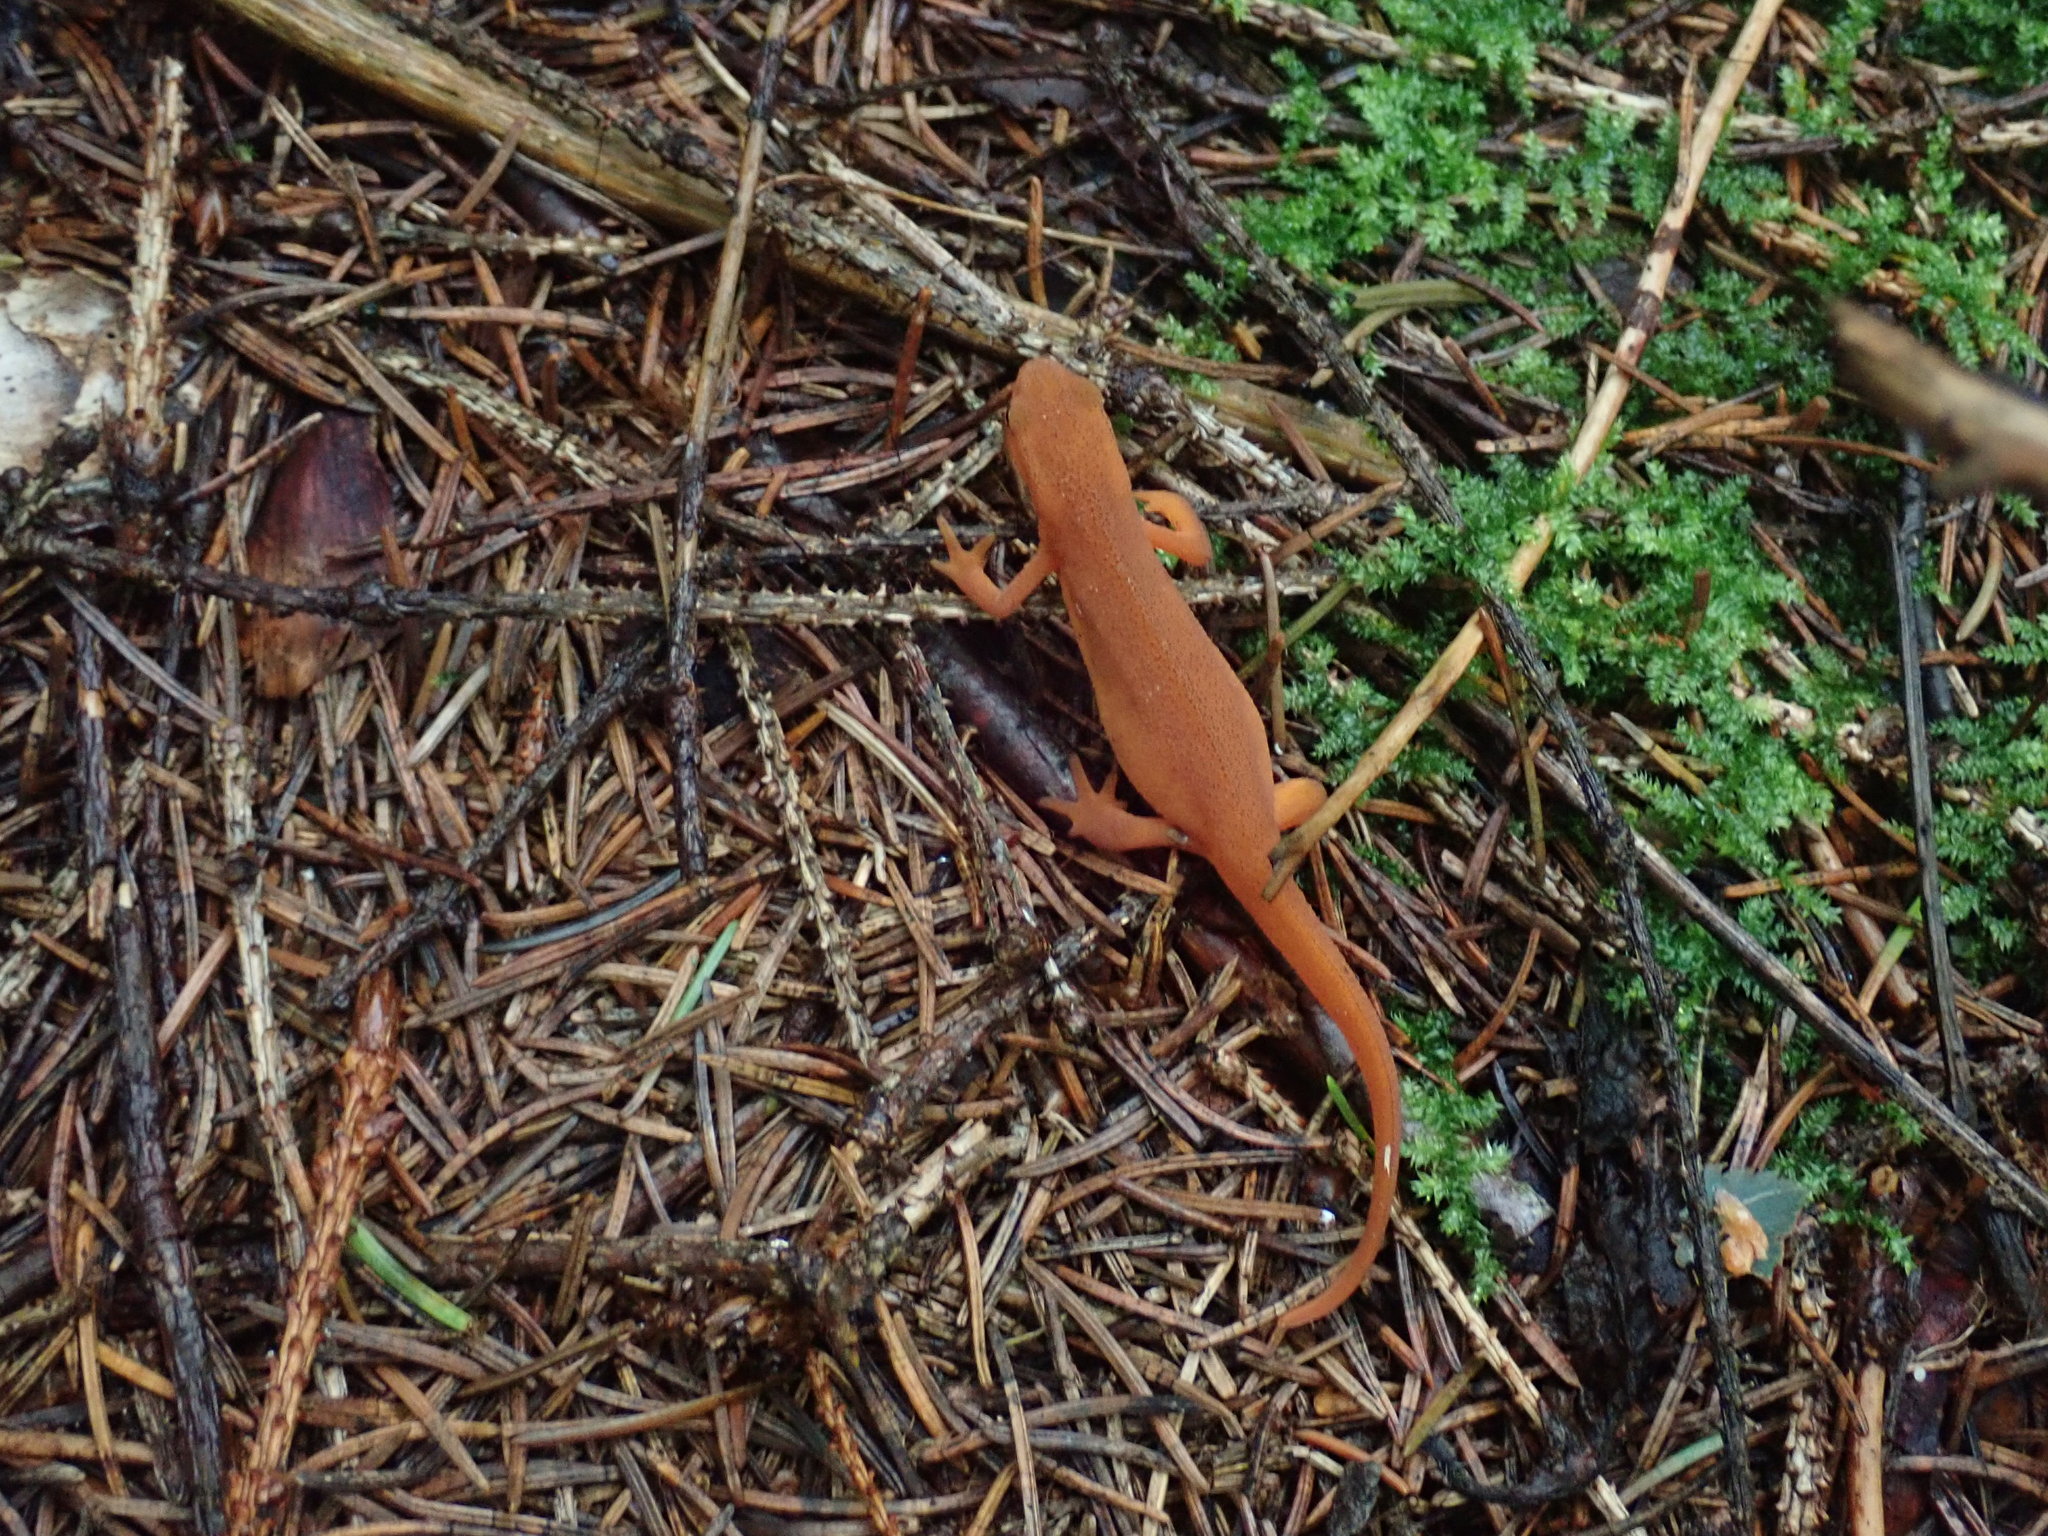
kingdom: Animalia
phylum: Chordata
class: Amphibia
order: Caudata
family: Salamandridae
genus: Notophthalmus
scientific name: Notophthalmus viridescens
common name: Eastern newt
